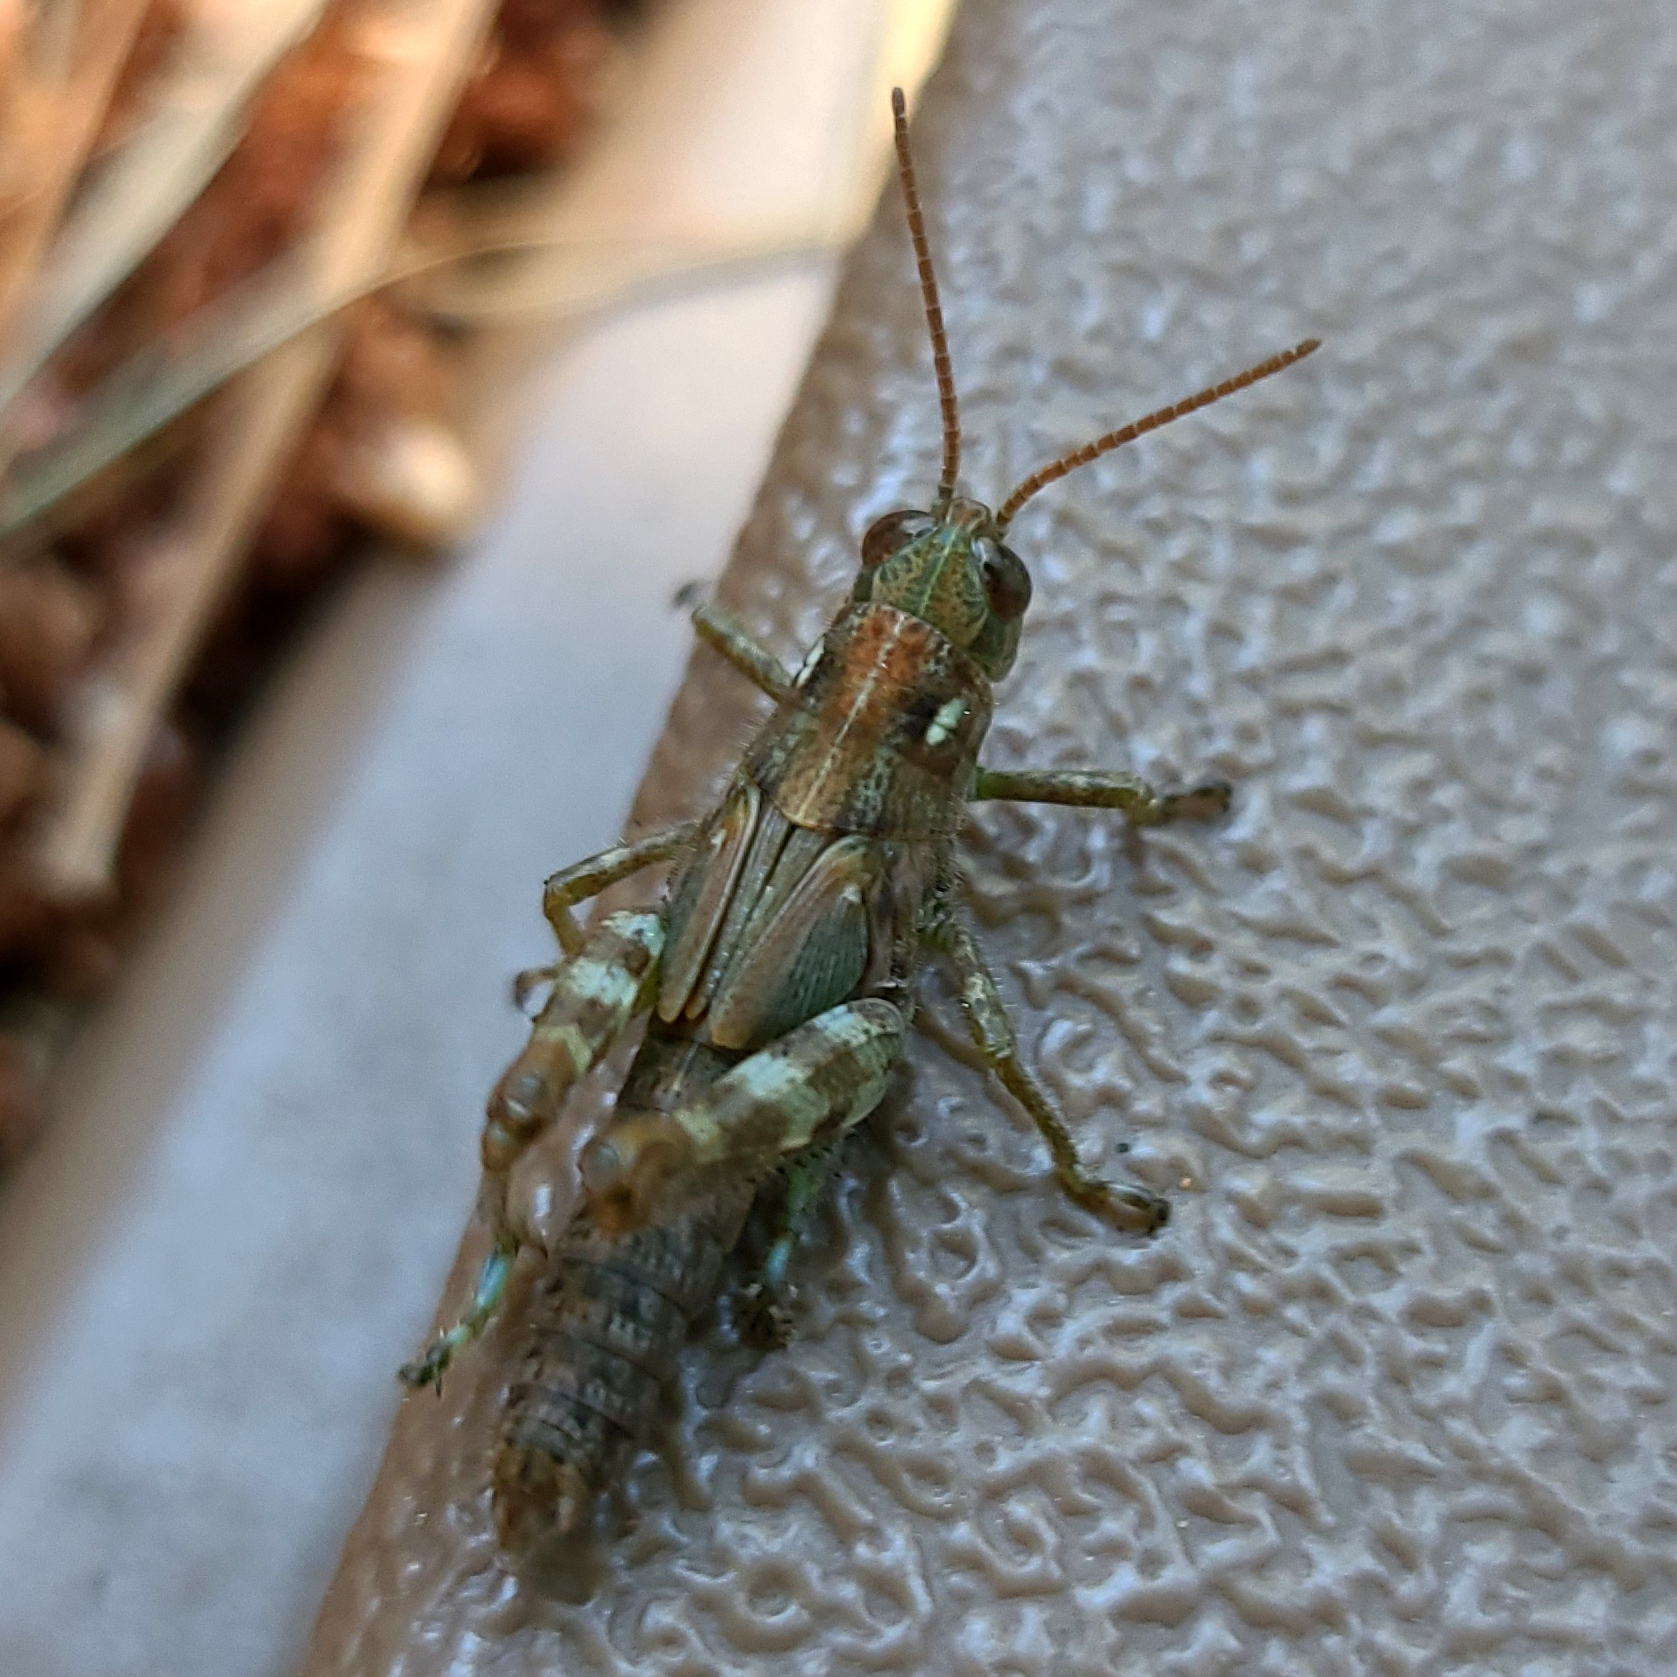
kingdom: Animalia
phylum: Arthropoda
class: Insecta
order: Orthoptera
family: Acrididae
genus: Melanoplus
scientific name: Melanoplus punctulatus
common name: Pine-tree spur-throat grasshopper
